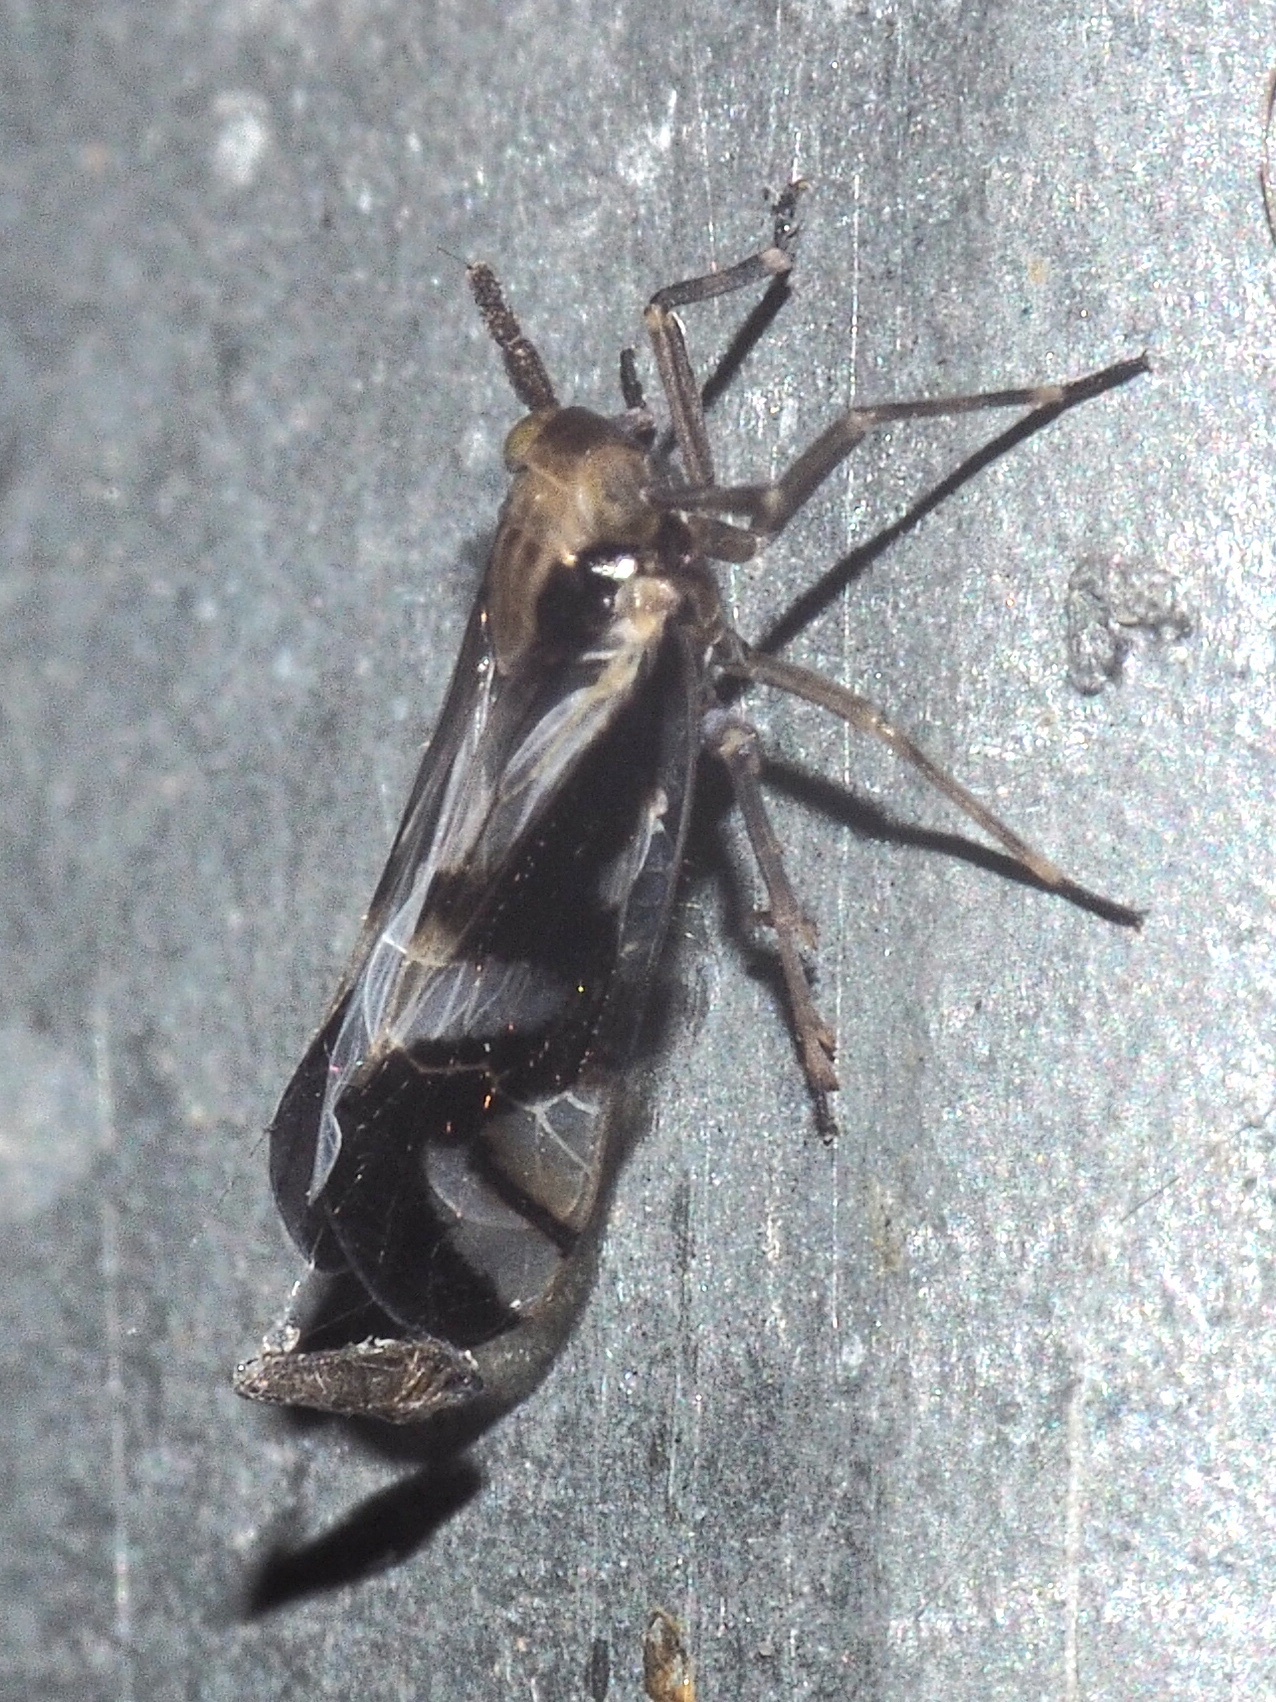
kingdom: Animalia
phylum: Arthropoda
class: Insecta
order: Hemiptera
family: Delphacidae
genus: Delphax
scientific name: Delphax crassicornis
